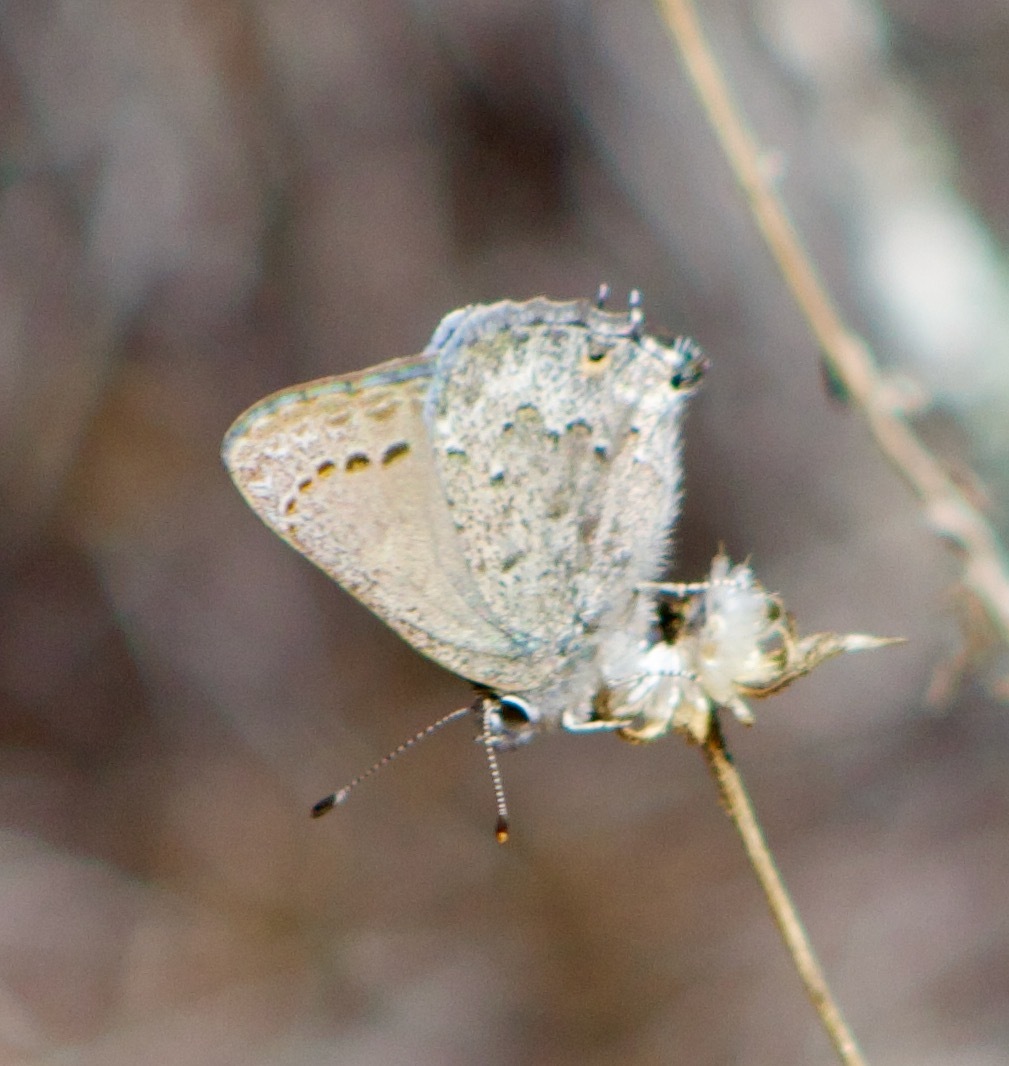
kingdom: Animalia
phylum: Arthropoda
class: Insecta
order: Lepidoptera
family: Lycaenidae
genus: Strymon
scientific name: Strymon eurytulus
